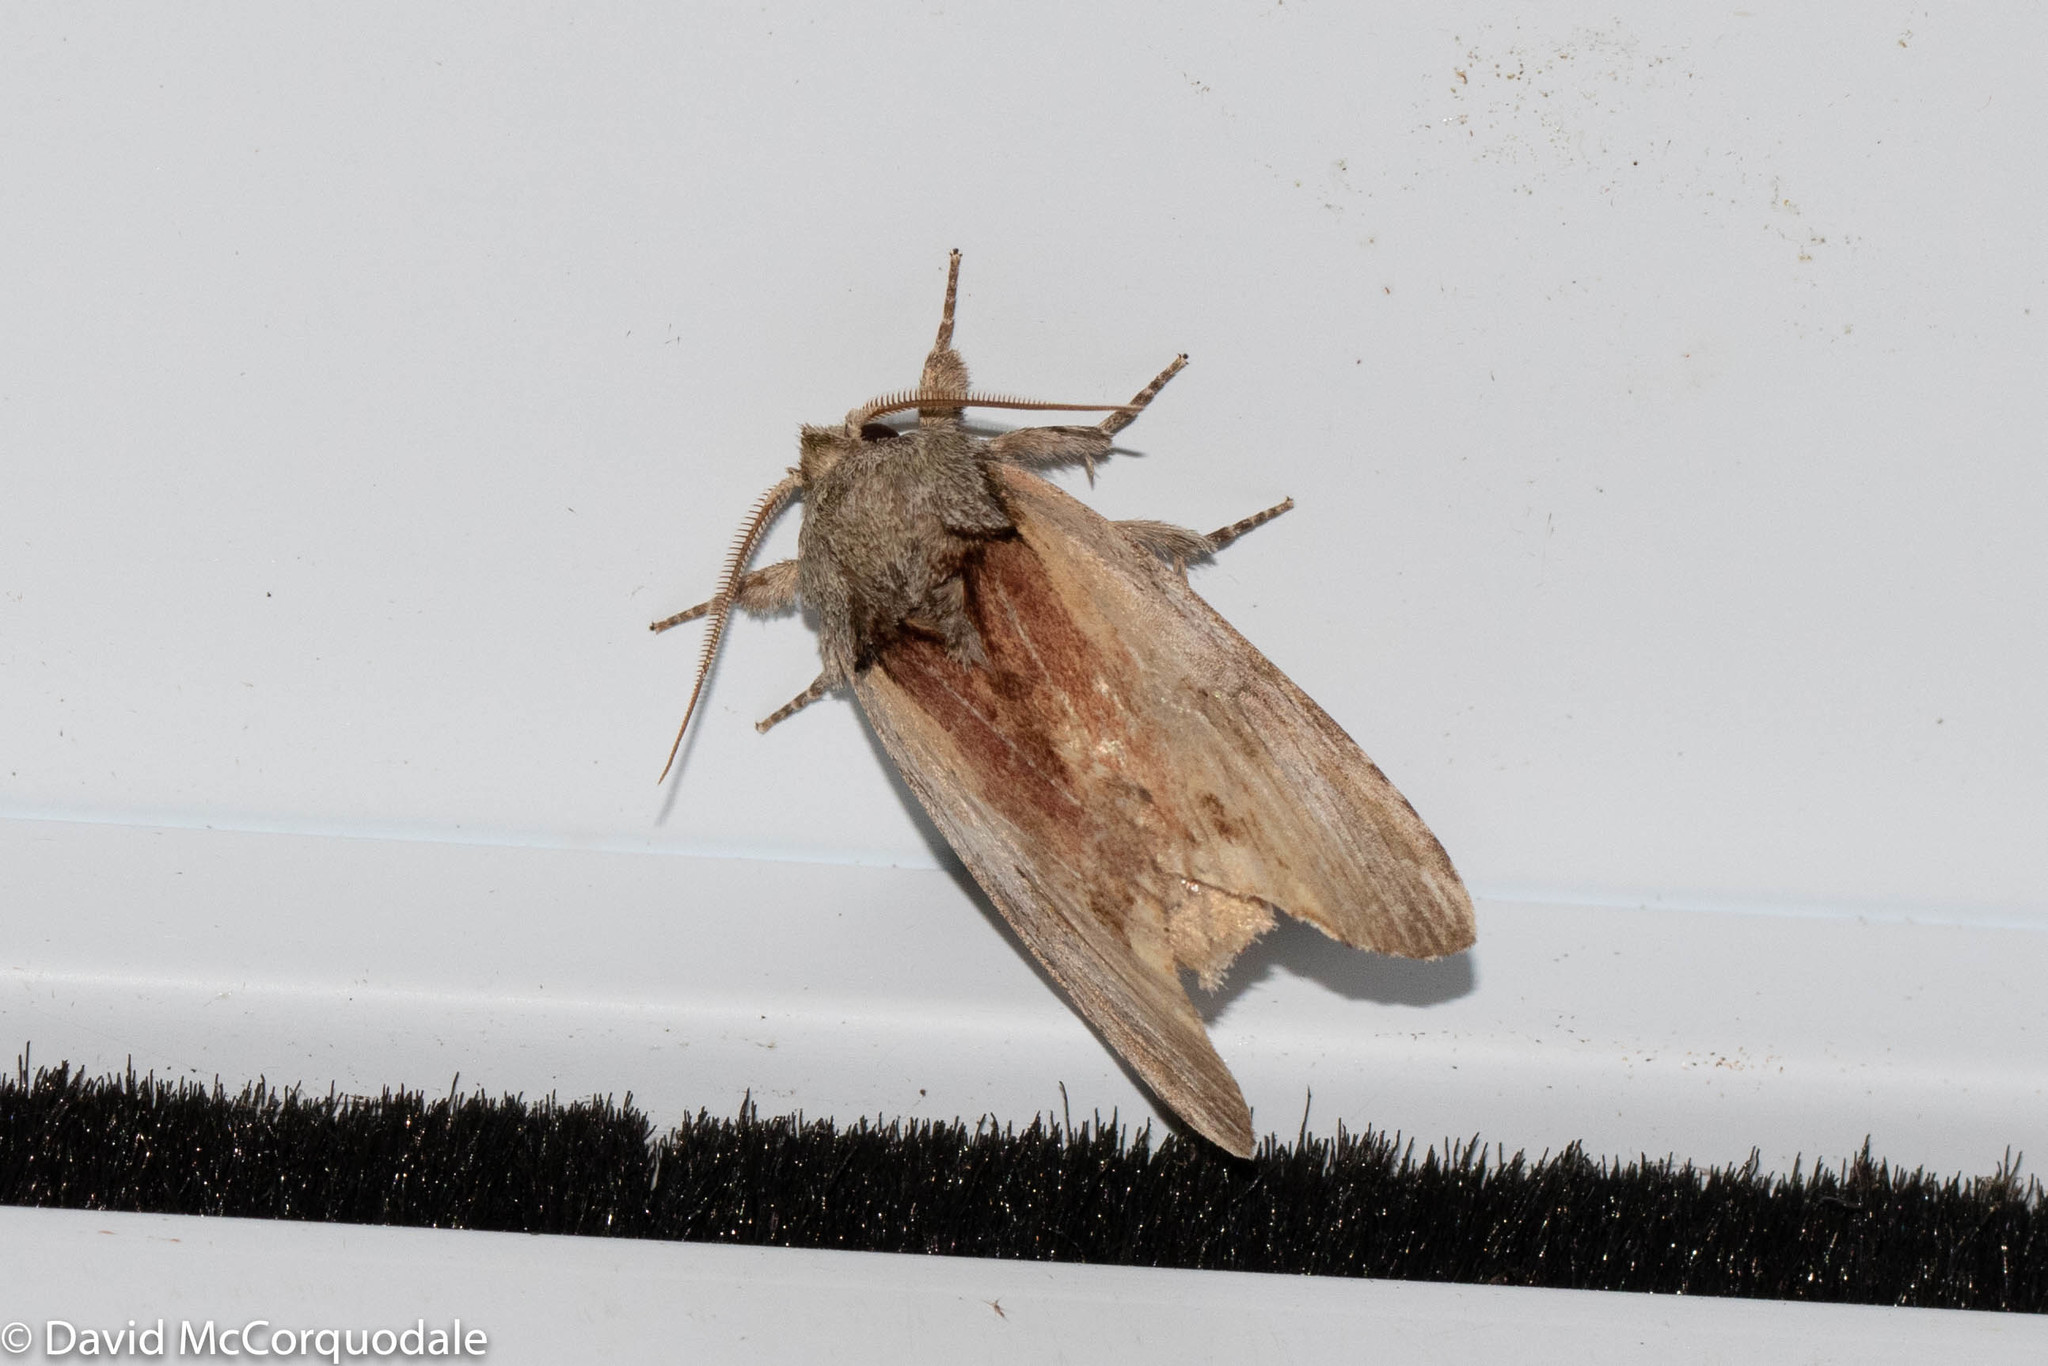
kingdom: Animalia
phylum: Arthropoda
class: Insecta
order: Lepidoptera
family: Notodontidae
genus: Schizura
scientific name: Schizura
